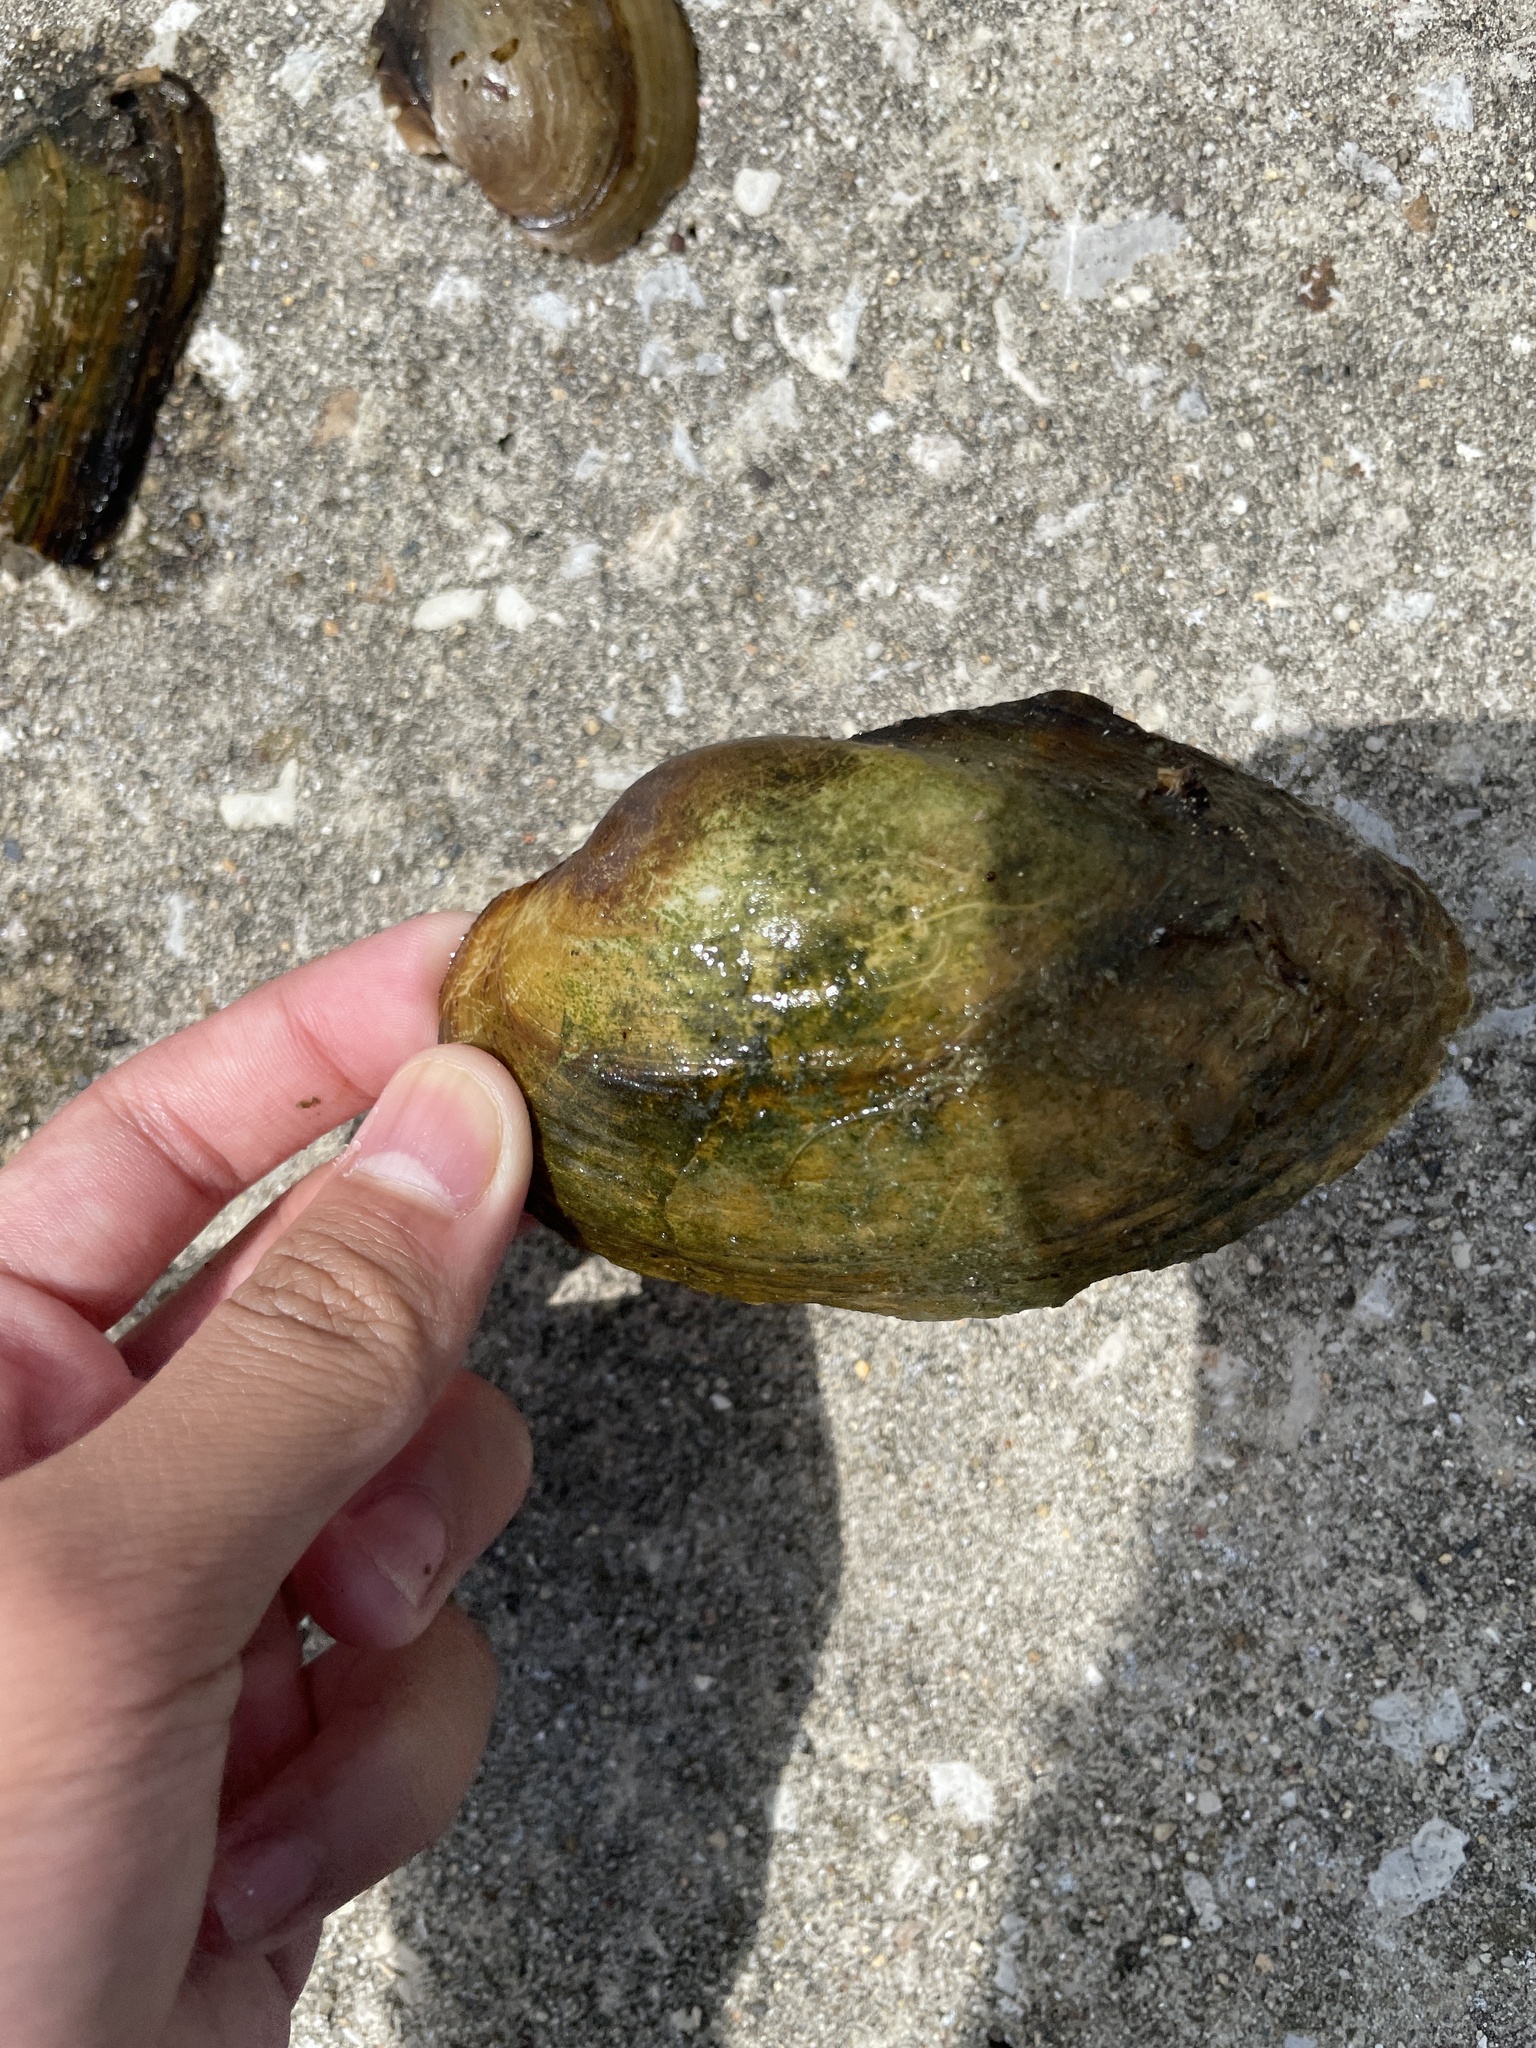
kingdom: Animalia
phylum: Mollusca
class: Bivalvia
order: Unionida
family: Unionidae
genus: Pyganodon
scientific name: Pyganodon grandis
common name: Giant floater
